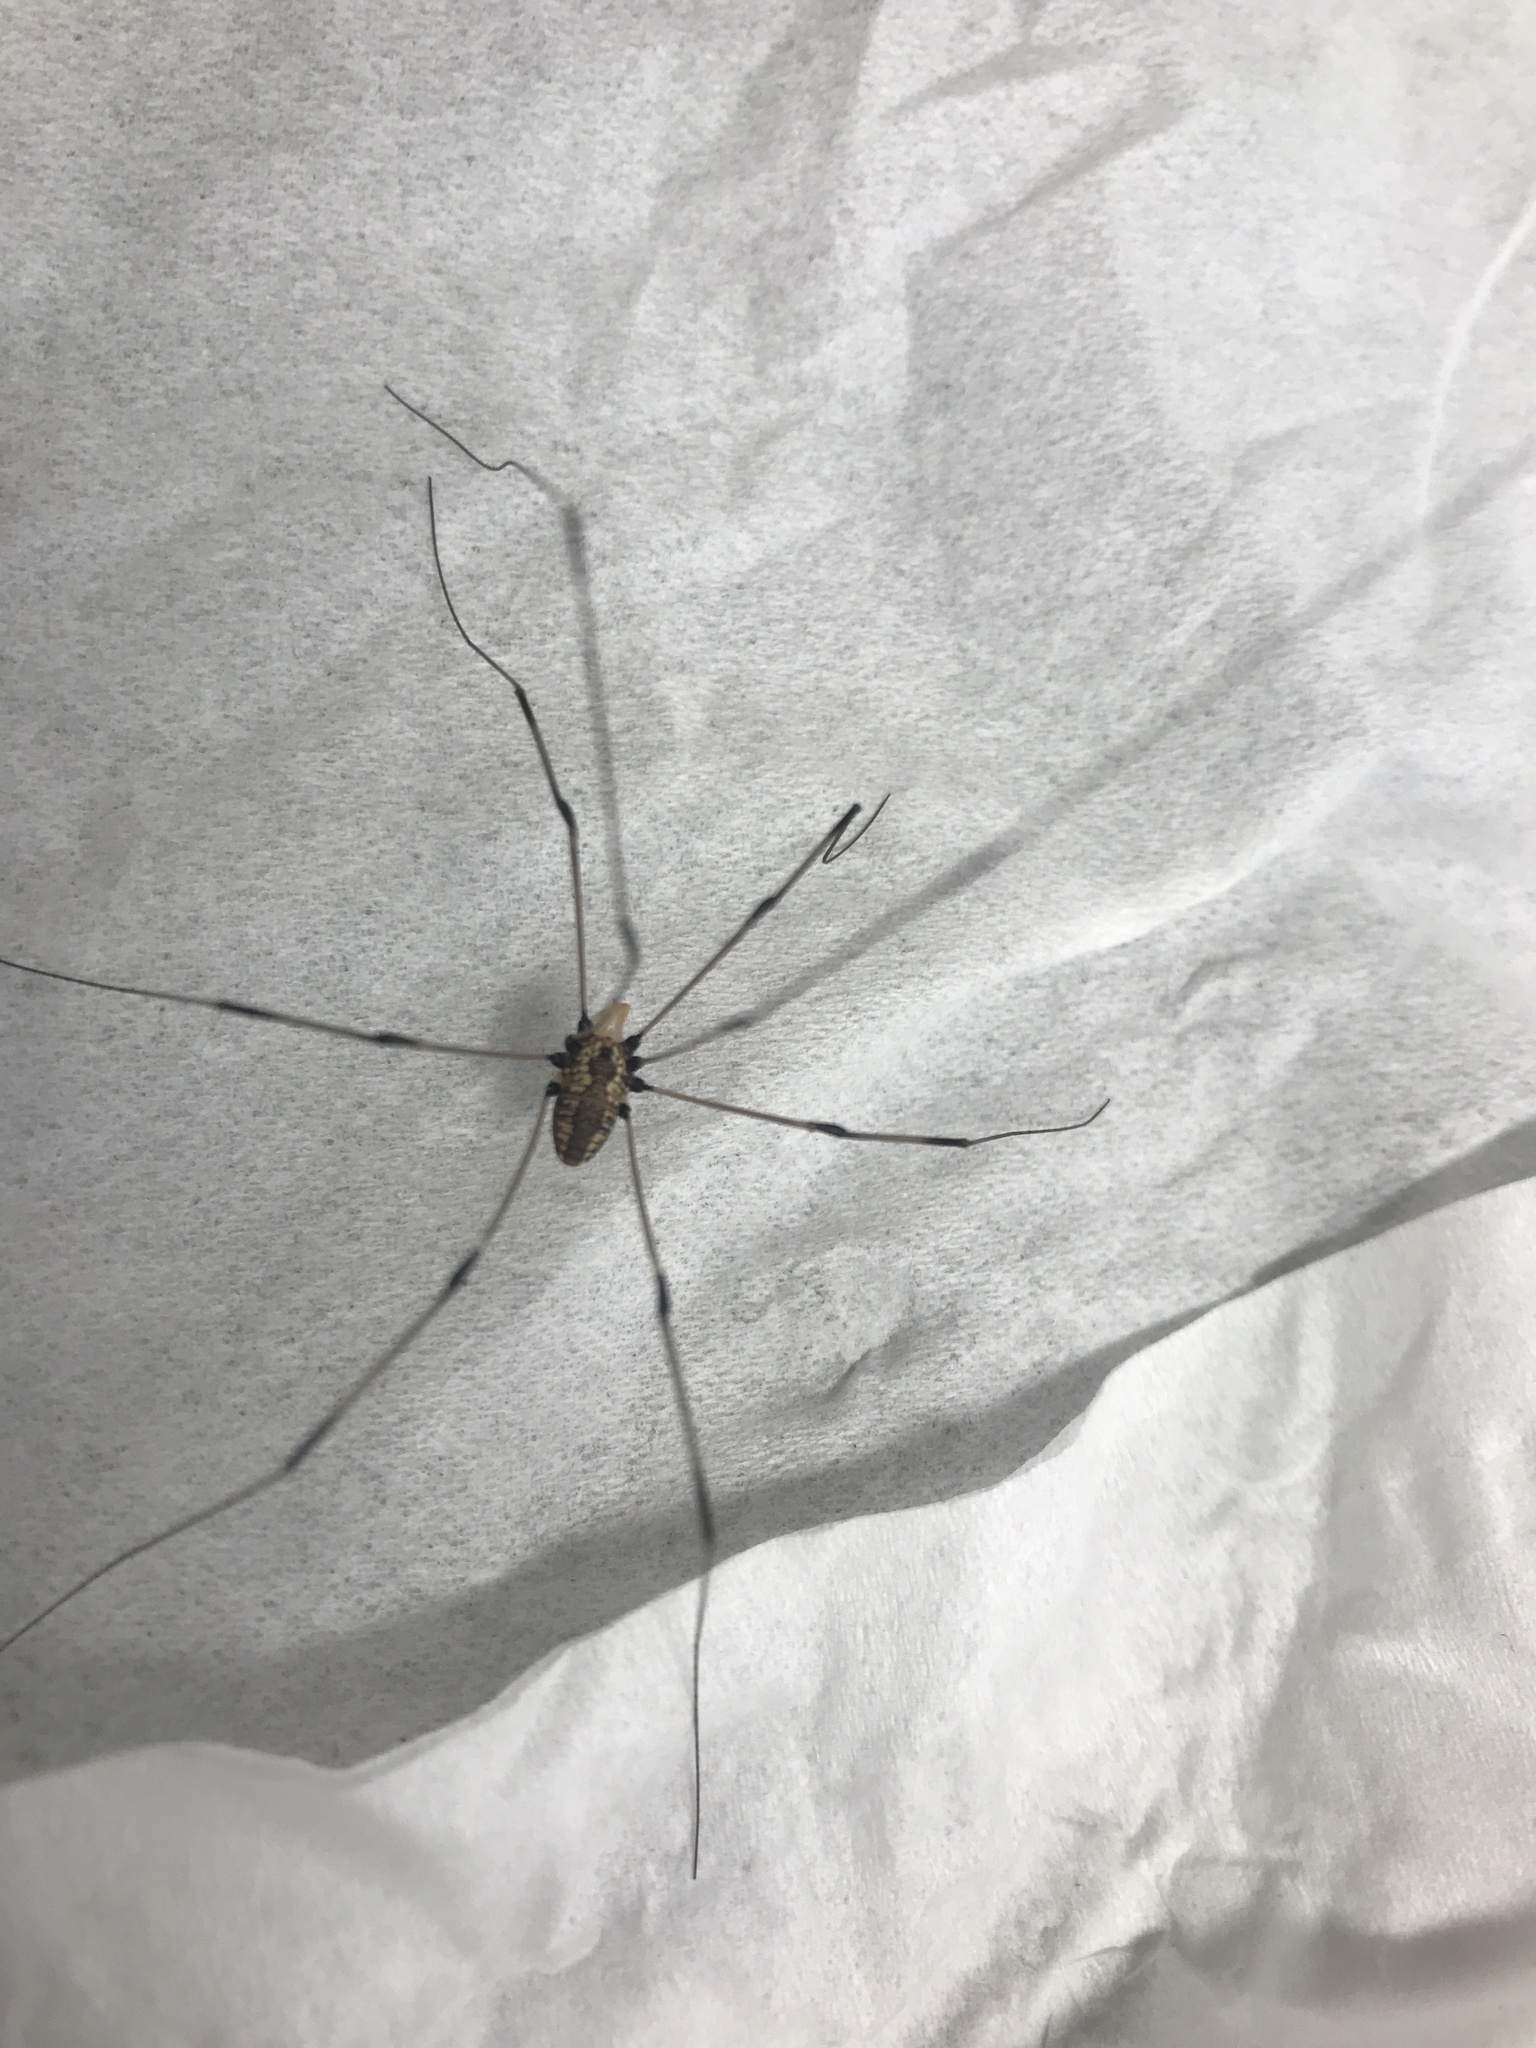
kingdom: Animalia
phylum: Arthropoda
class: Arachnida
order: Opiliones
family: Sclerosomatidae
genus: Leiobunum
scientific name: Leiobunum vittatum
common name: Eastern harvestman
